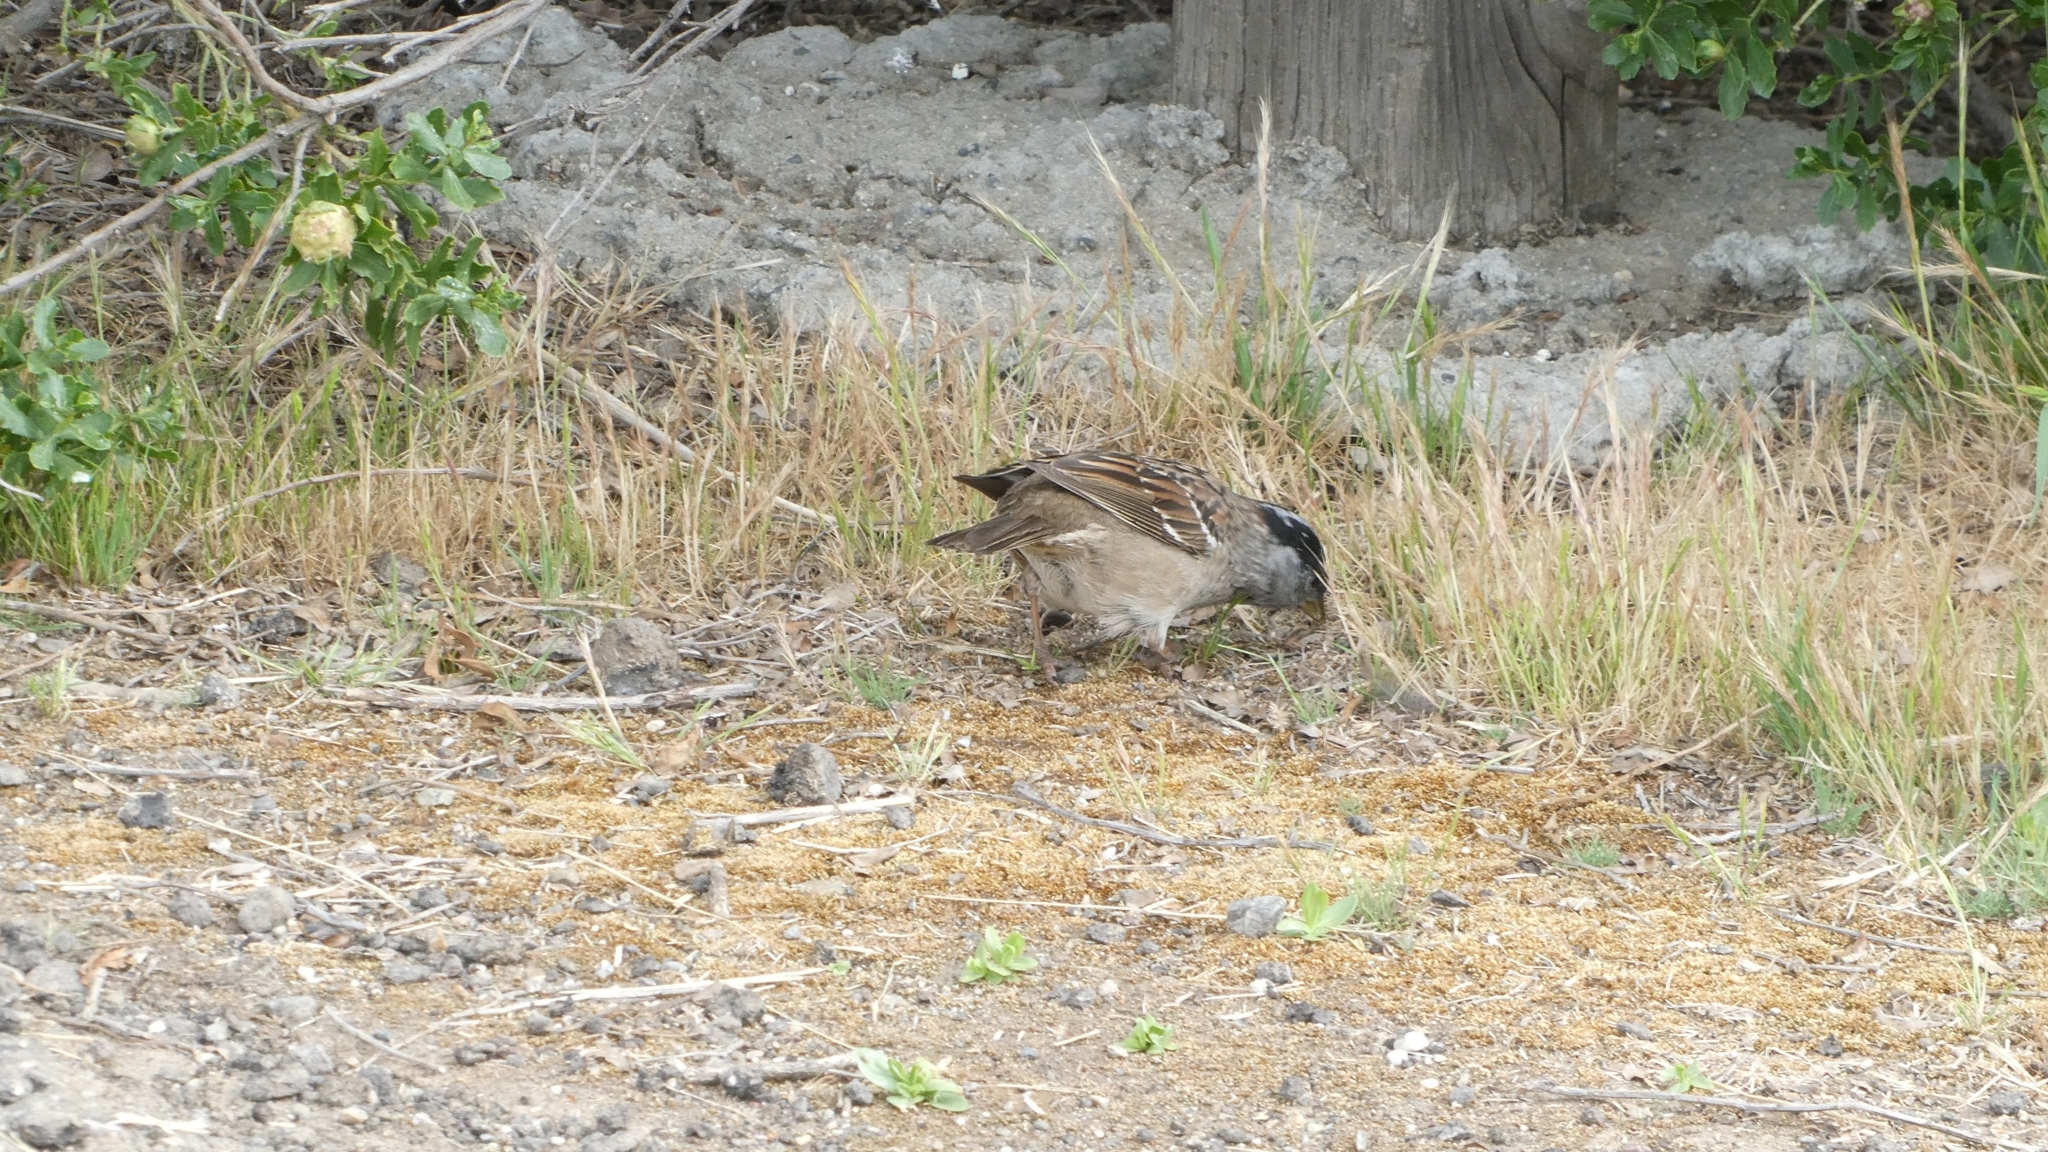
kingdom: Animalia
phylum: Chordata
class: Aves
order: Passeriformes
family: Passerellidae
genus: Zonotrichia
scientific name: Zonotrichia atricapilla
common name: Golden-crowned sparrow
